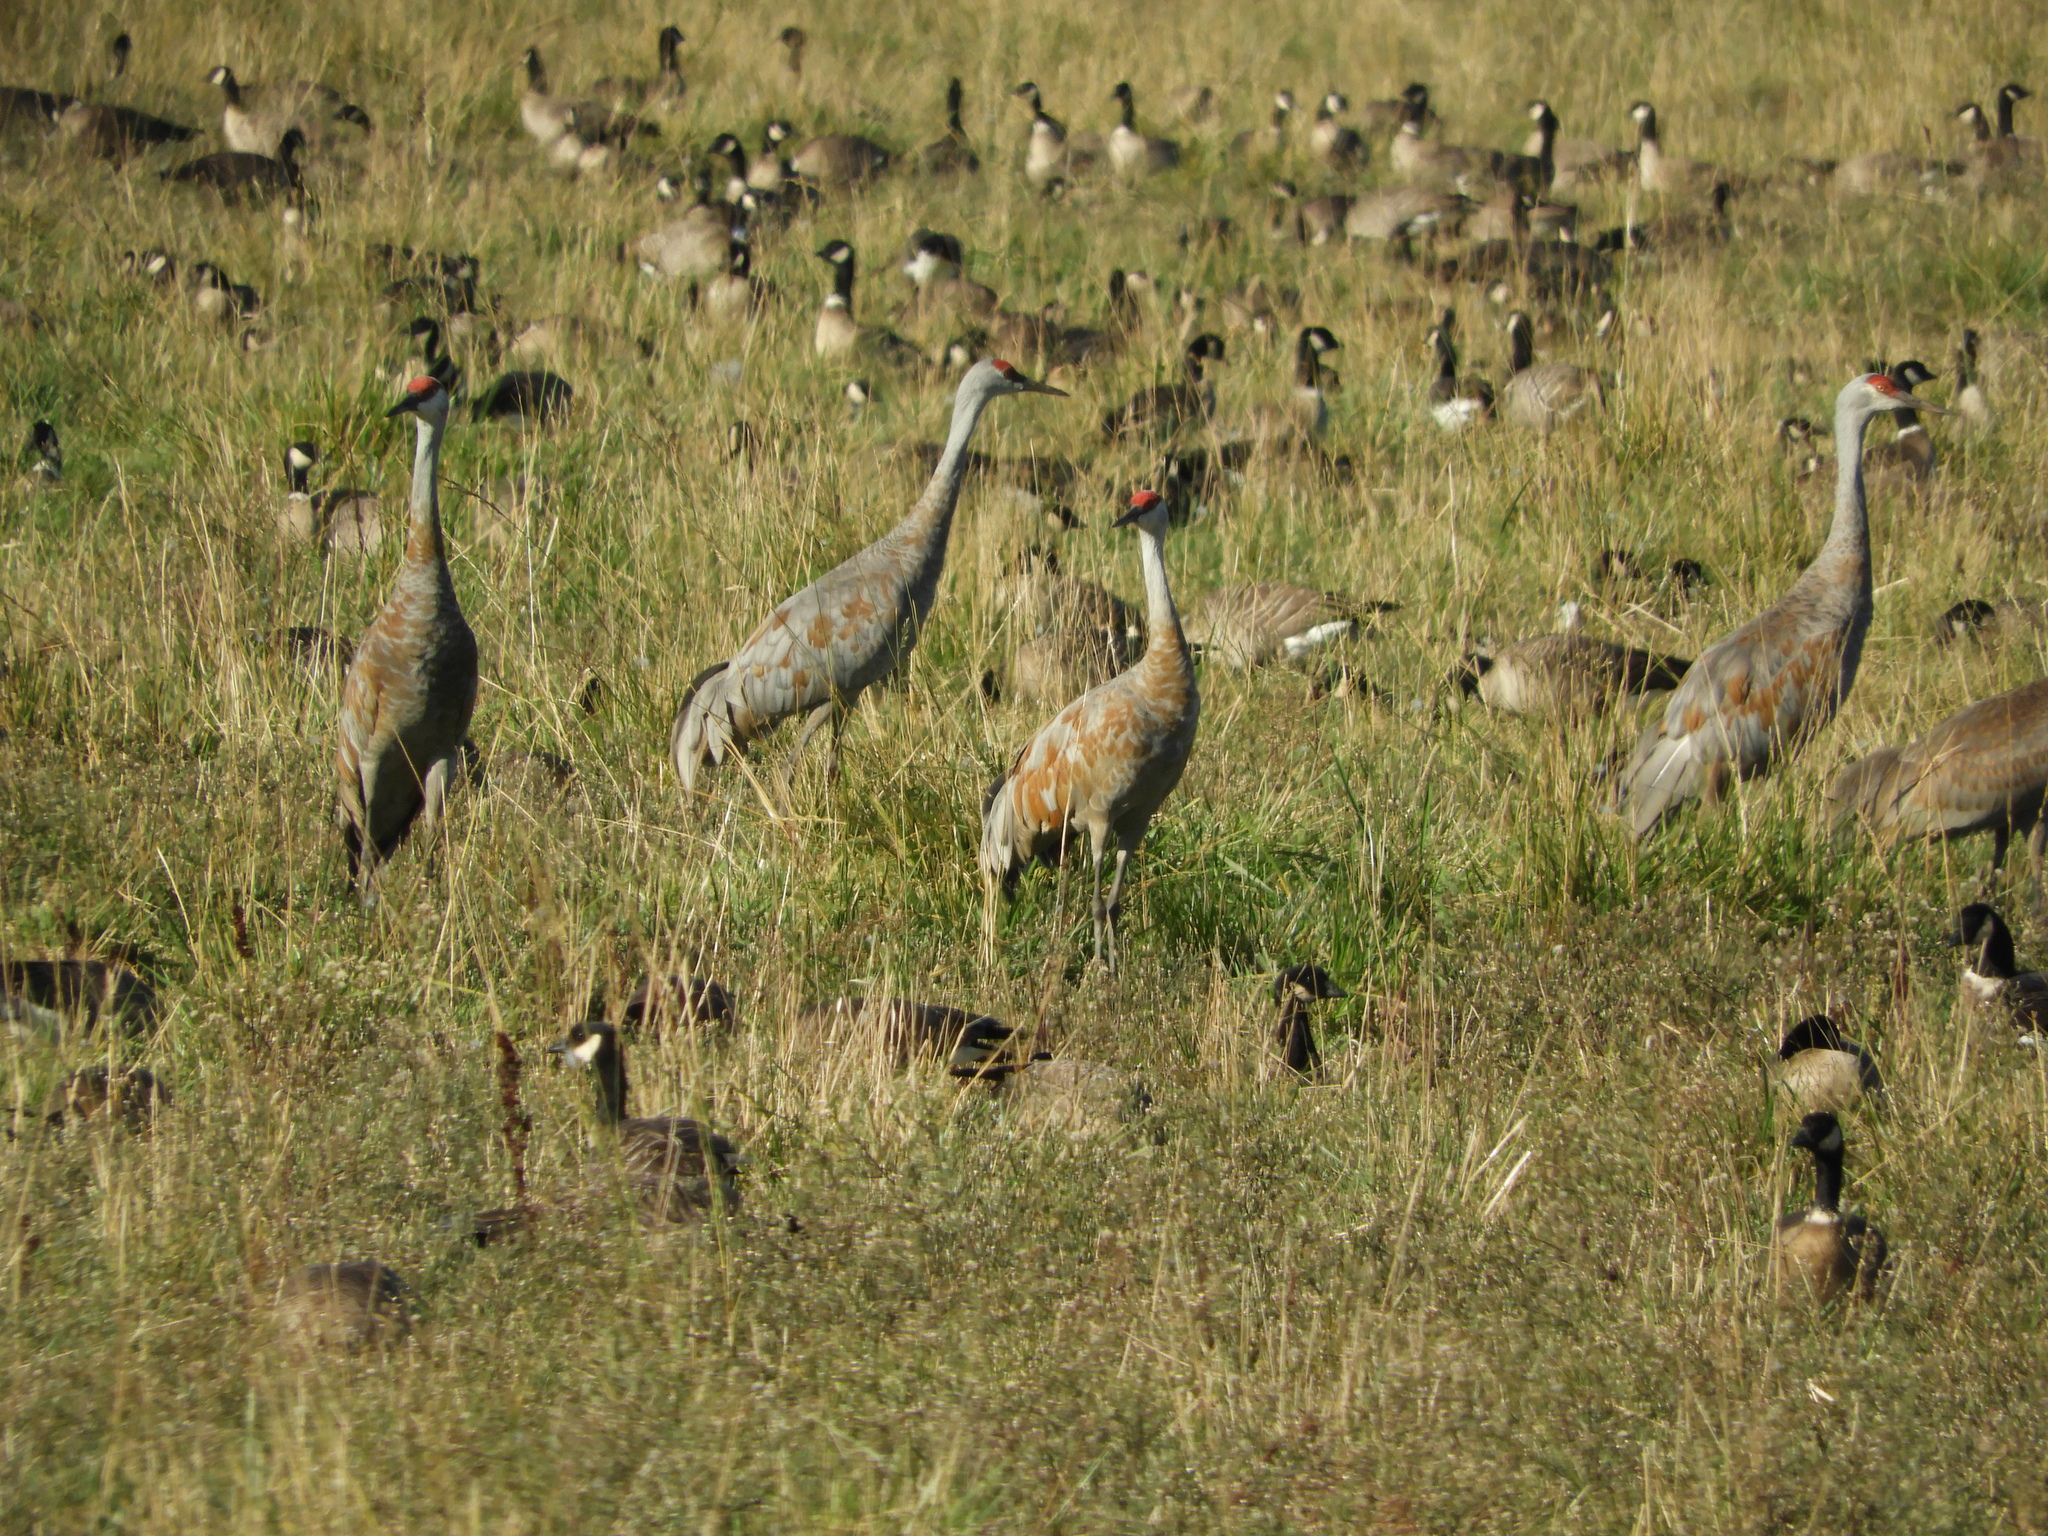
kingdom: Animalia
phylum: Chordata
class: Aves
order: Gruiformes
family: Gruidae
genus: Grus
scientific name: Grus canadensis
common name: Sandhill crane
